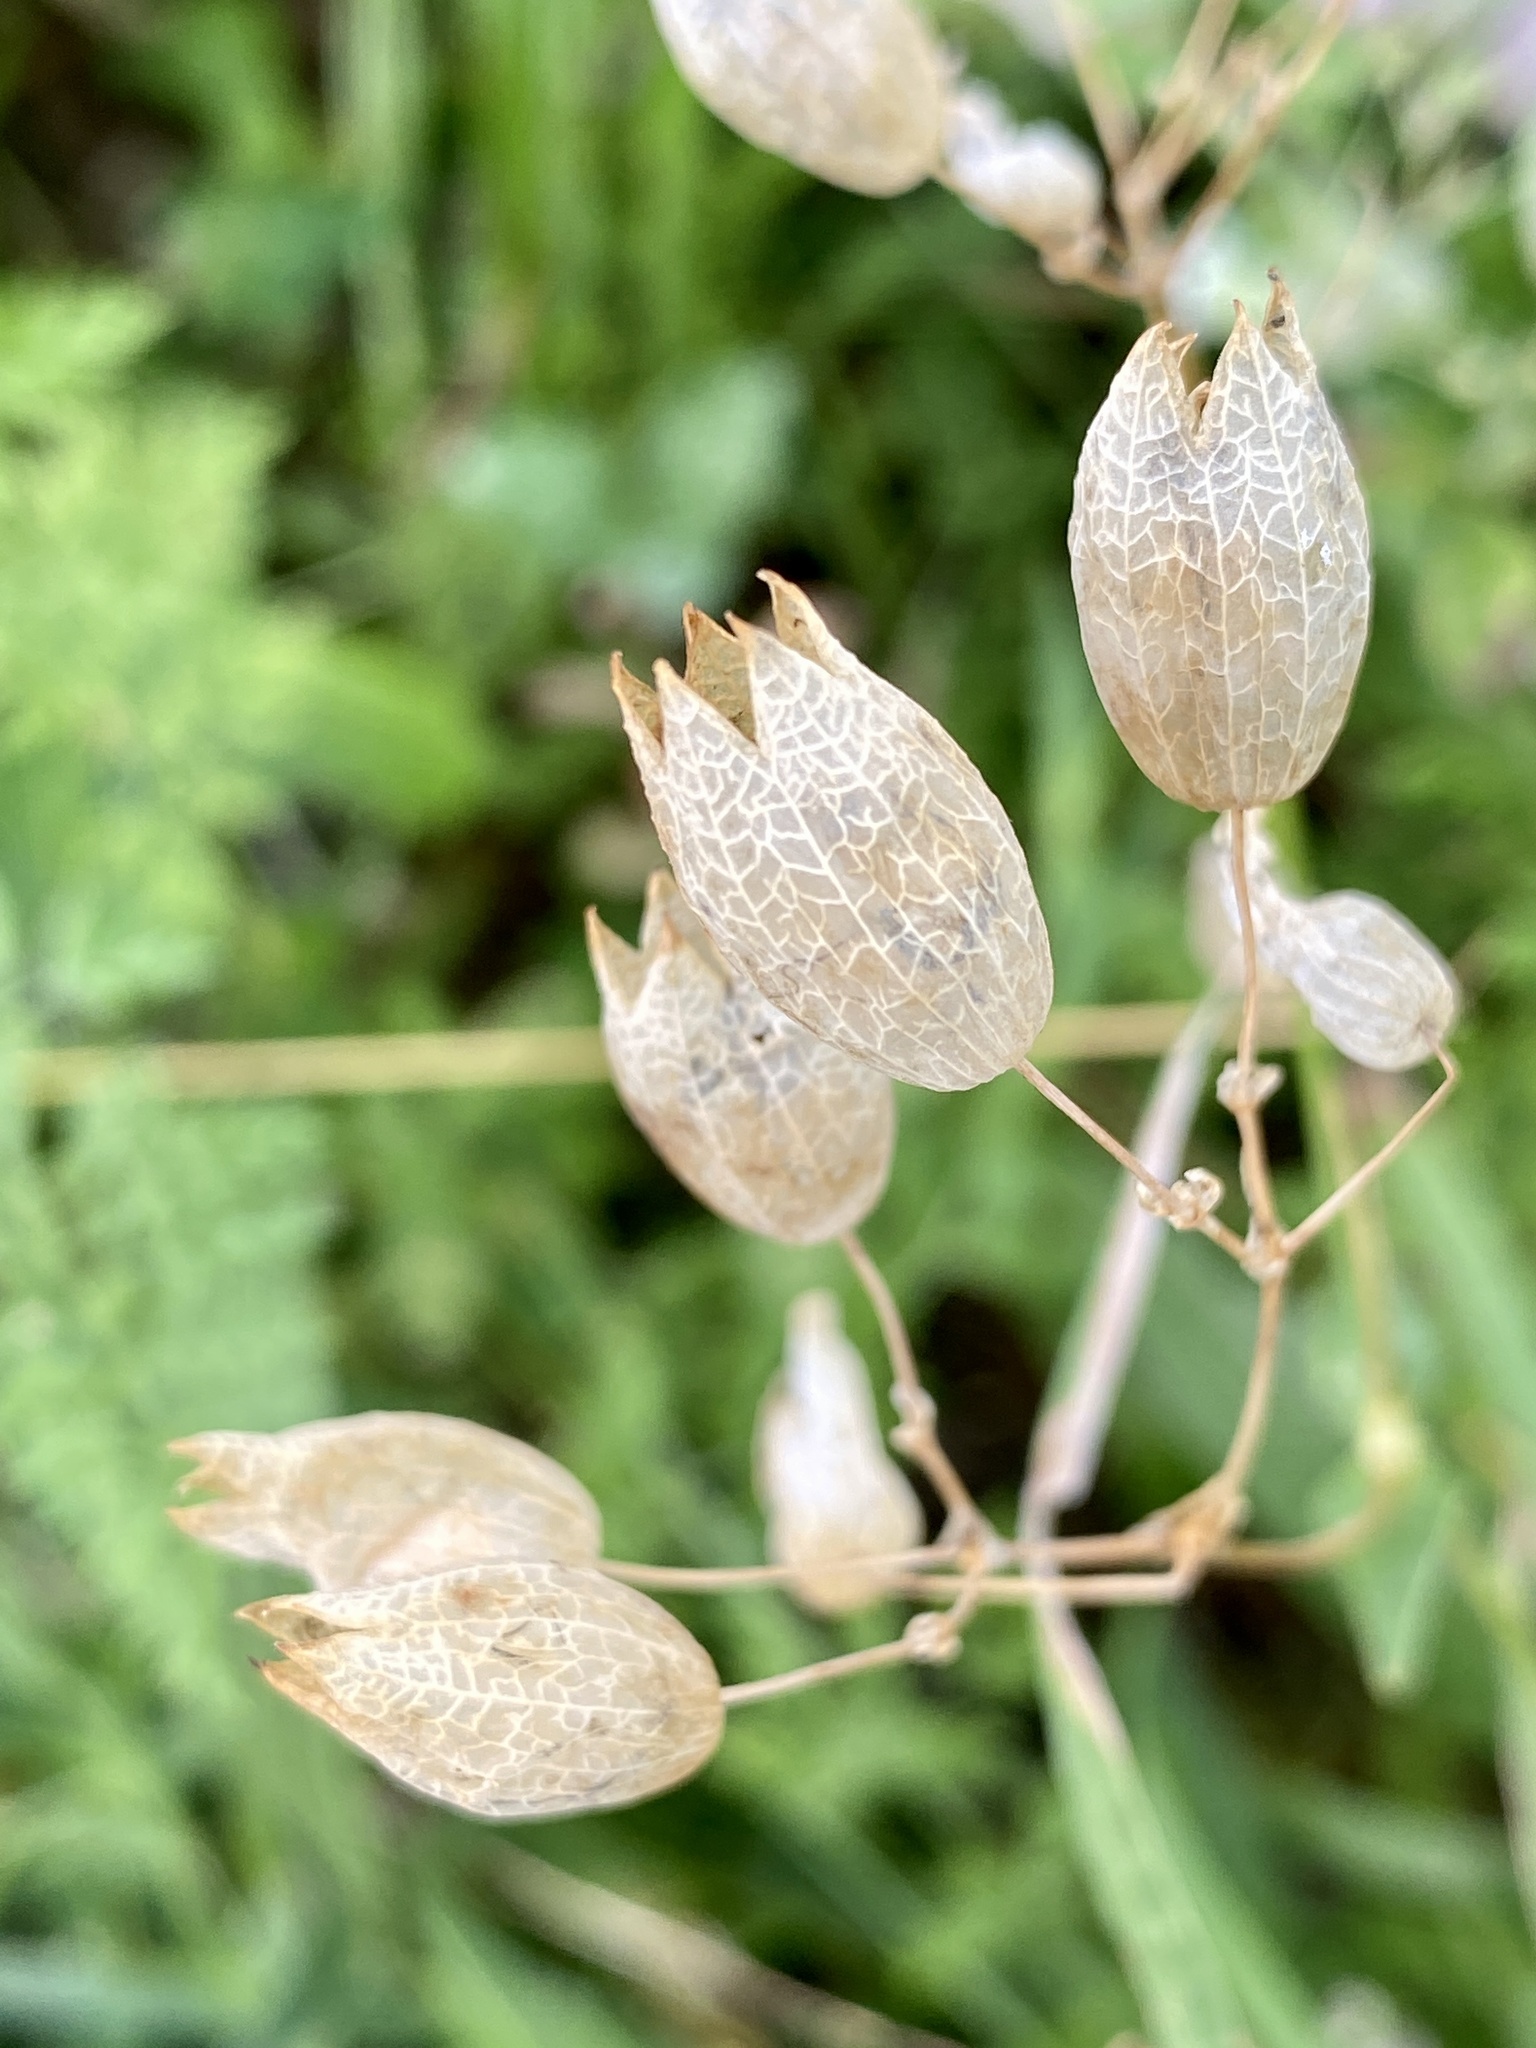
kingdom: Plantae
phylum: Tracheophyta
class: Magnoliopsida
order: Caryophyllales
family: Caryophyllaceae
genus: Silene
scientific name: Silene vulgaris
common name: Bladder campion
